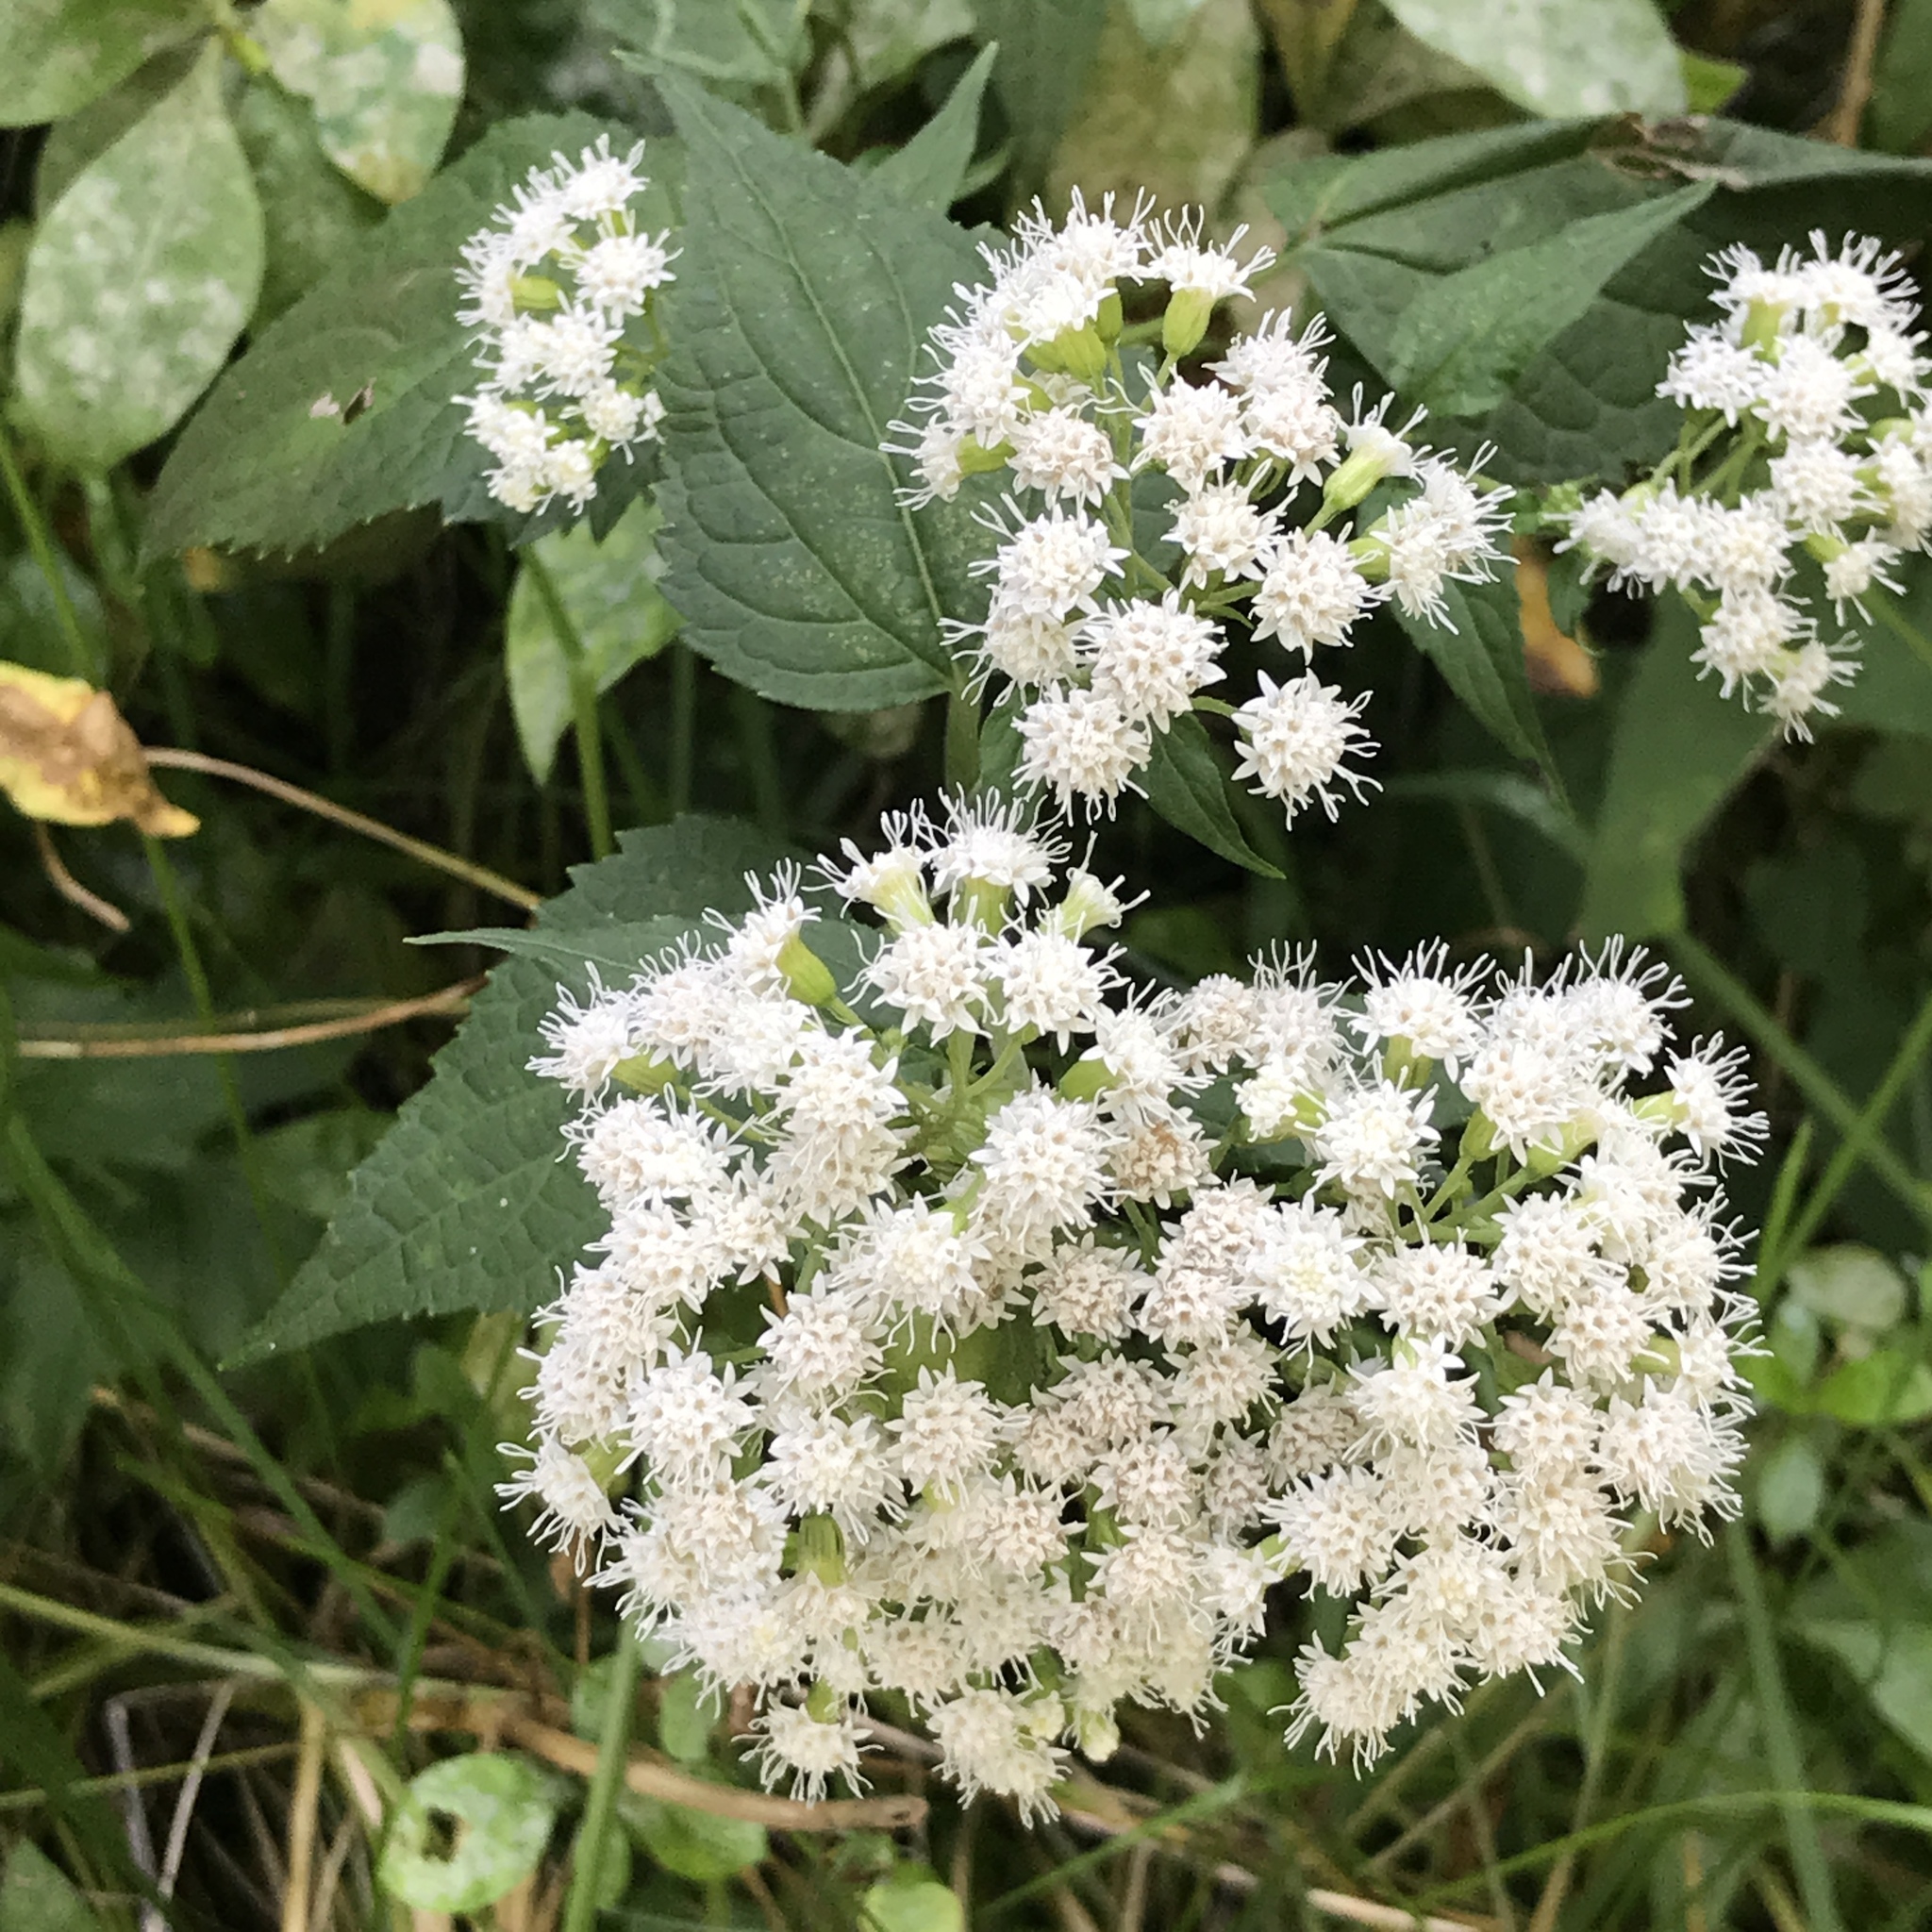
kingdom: Plantae
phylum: Tracheophyta
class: Magnoliopsida
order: Asterales
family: Asteraceae
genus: Ageratina
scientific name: Ageratina altissima
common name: White snakeroot
